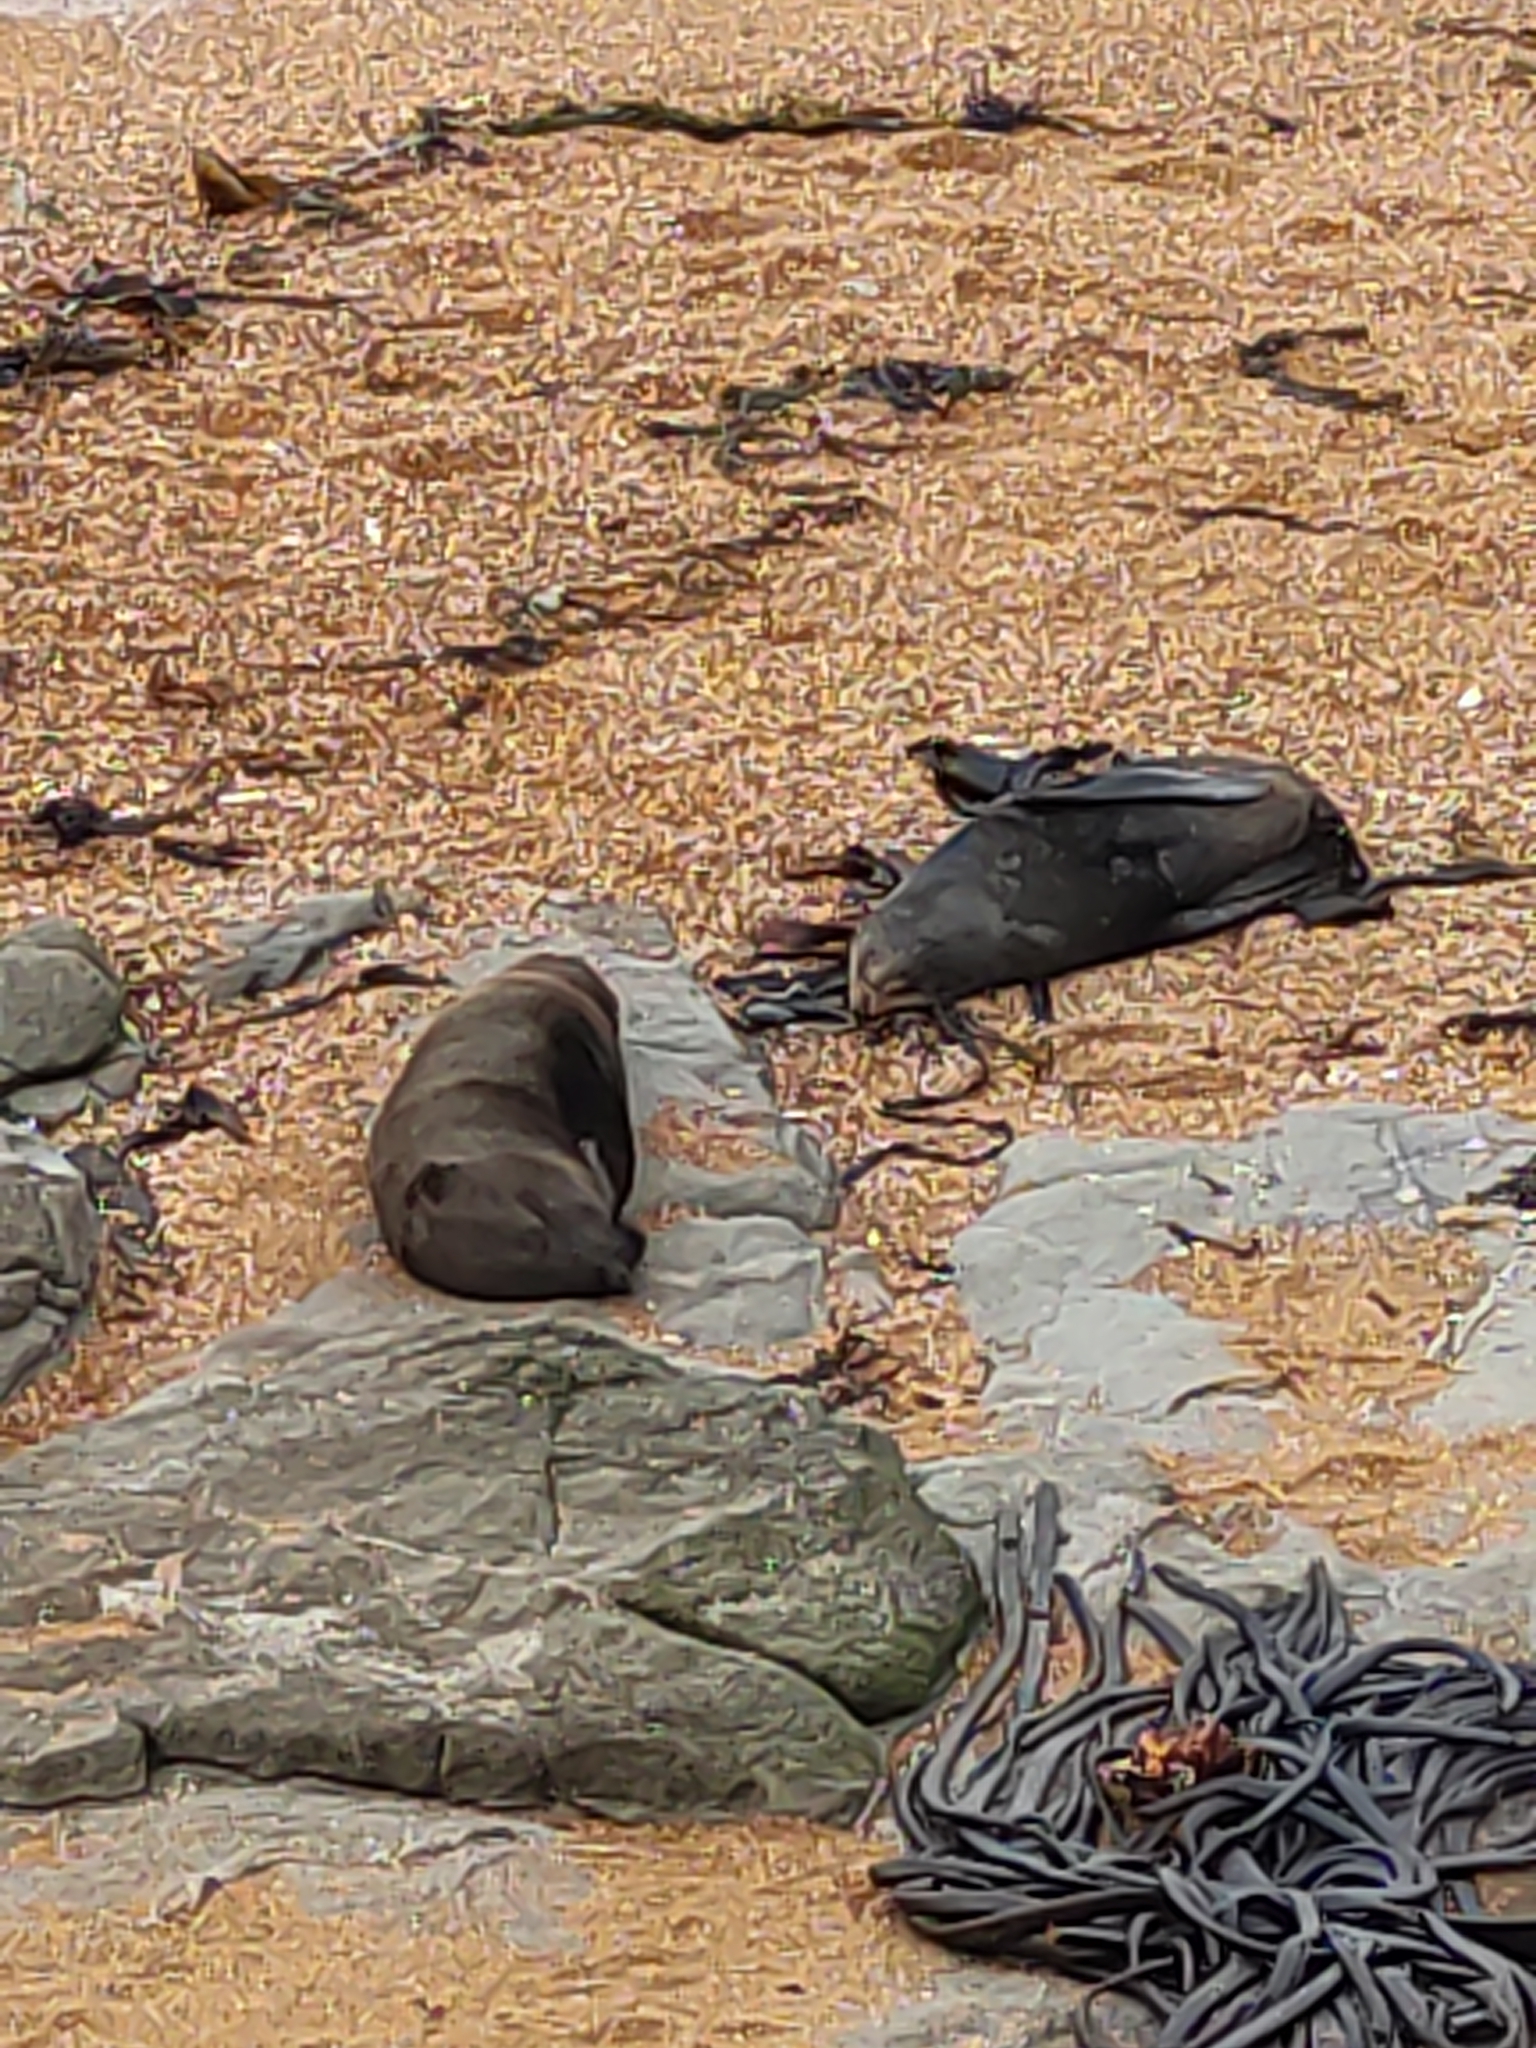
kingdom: Animalia
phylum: Chordata
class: Mammalia
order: Carnivora
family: Otariidae
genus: Arctocephalus
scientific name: Arctocephalus forsteri
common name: New zealand fur seal
